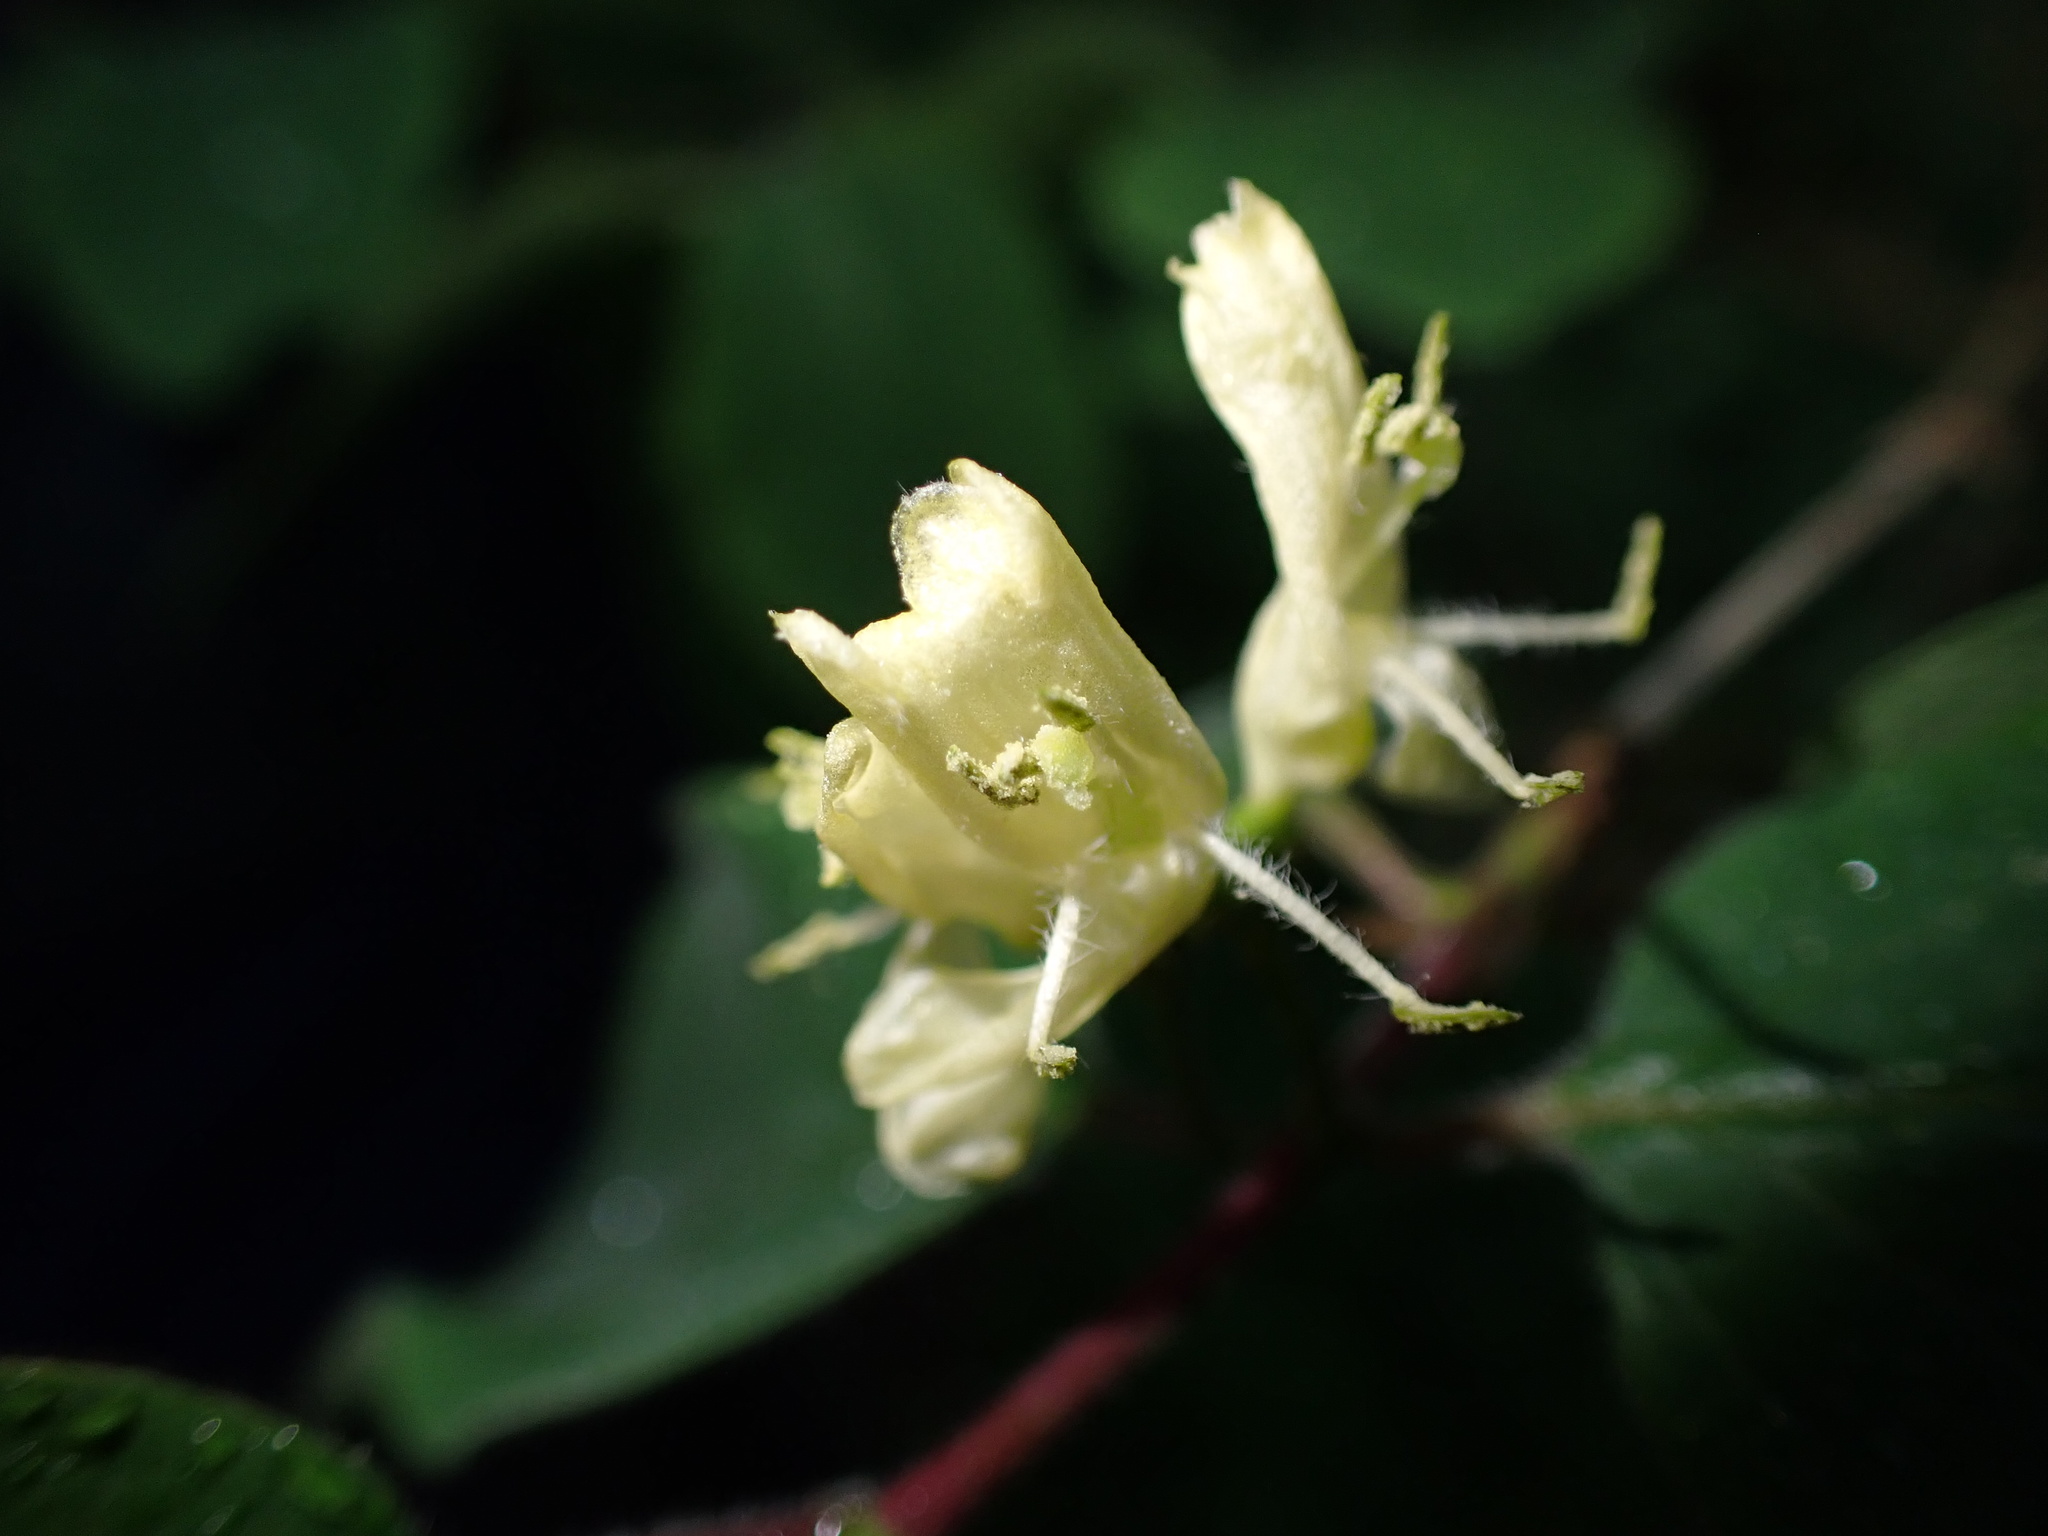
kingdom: Plantae
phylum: Tracheophyta
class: Magnoliopsida
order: Dipsacales
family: Caprifoliaceae
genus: Lonicera
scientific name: Lonicera xylosteum
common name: Fly honeysuckle
